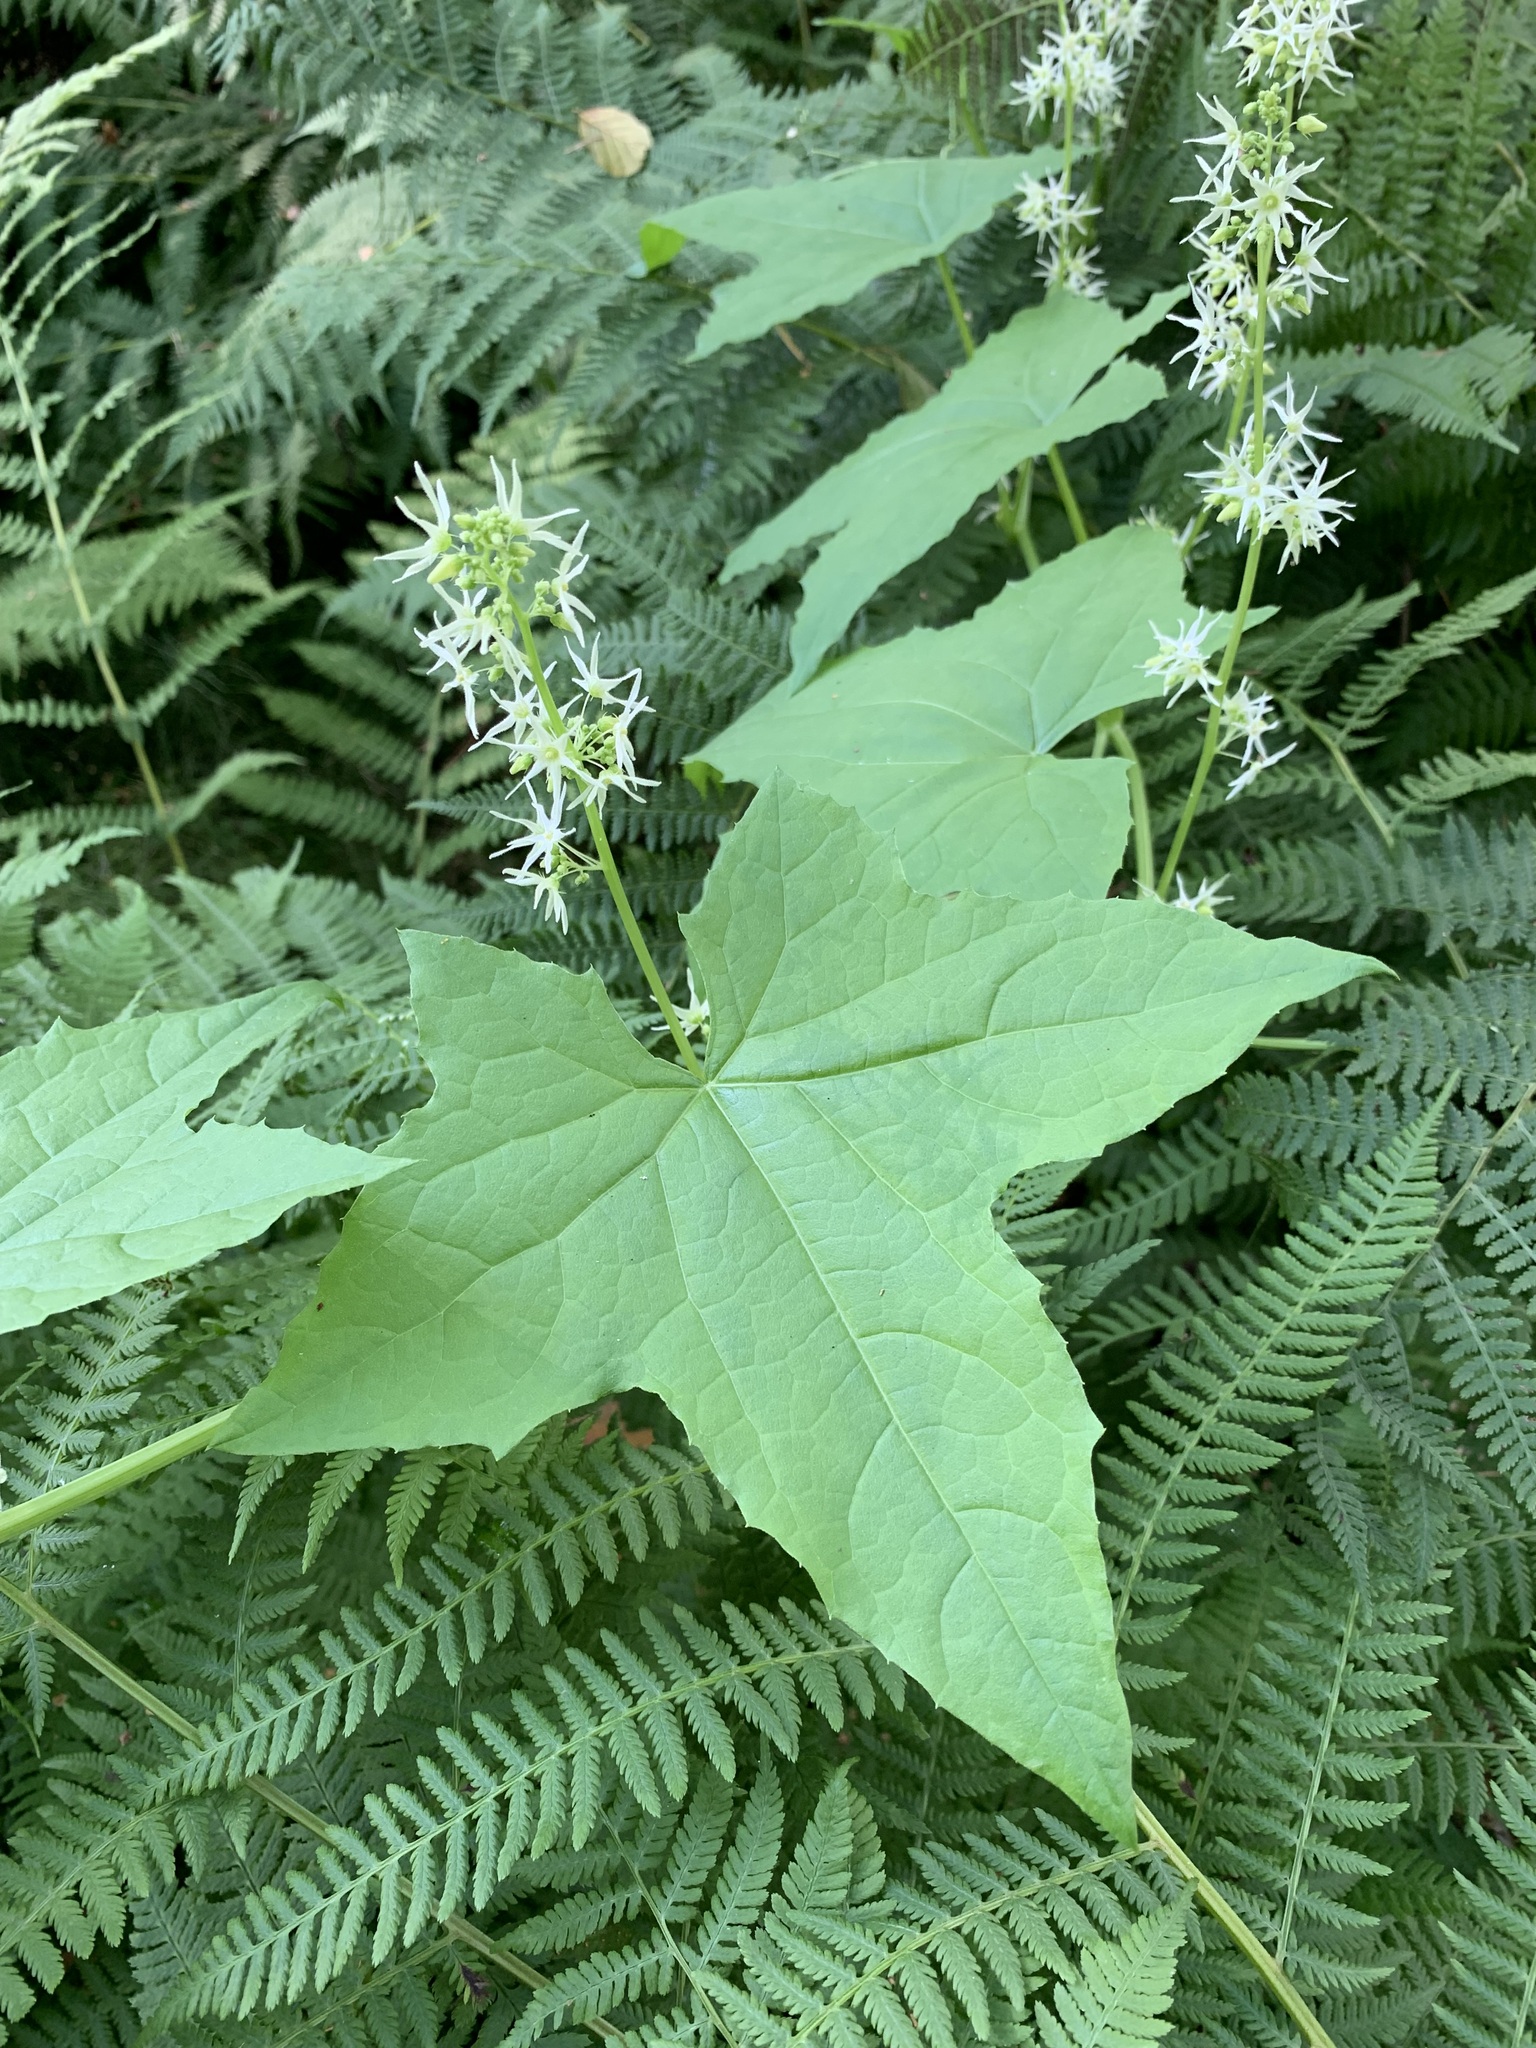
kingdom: Plantae
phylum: Tracheophyta
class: Magnoliopsida
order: Cucurbitales
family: Cucurbitaceae
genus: Echinocystis
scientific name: Echinocystis lobata
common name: Wild cucumber
